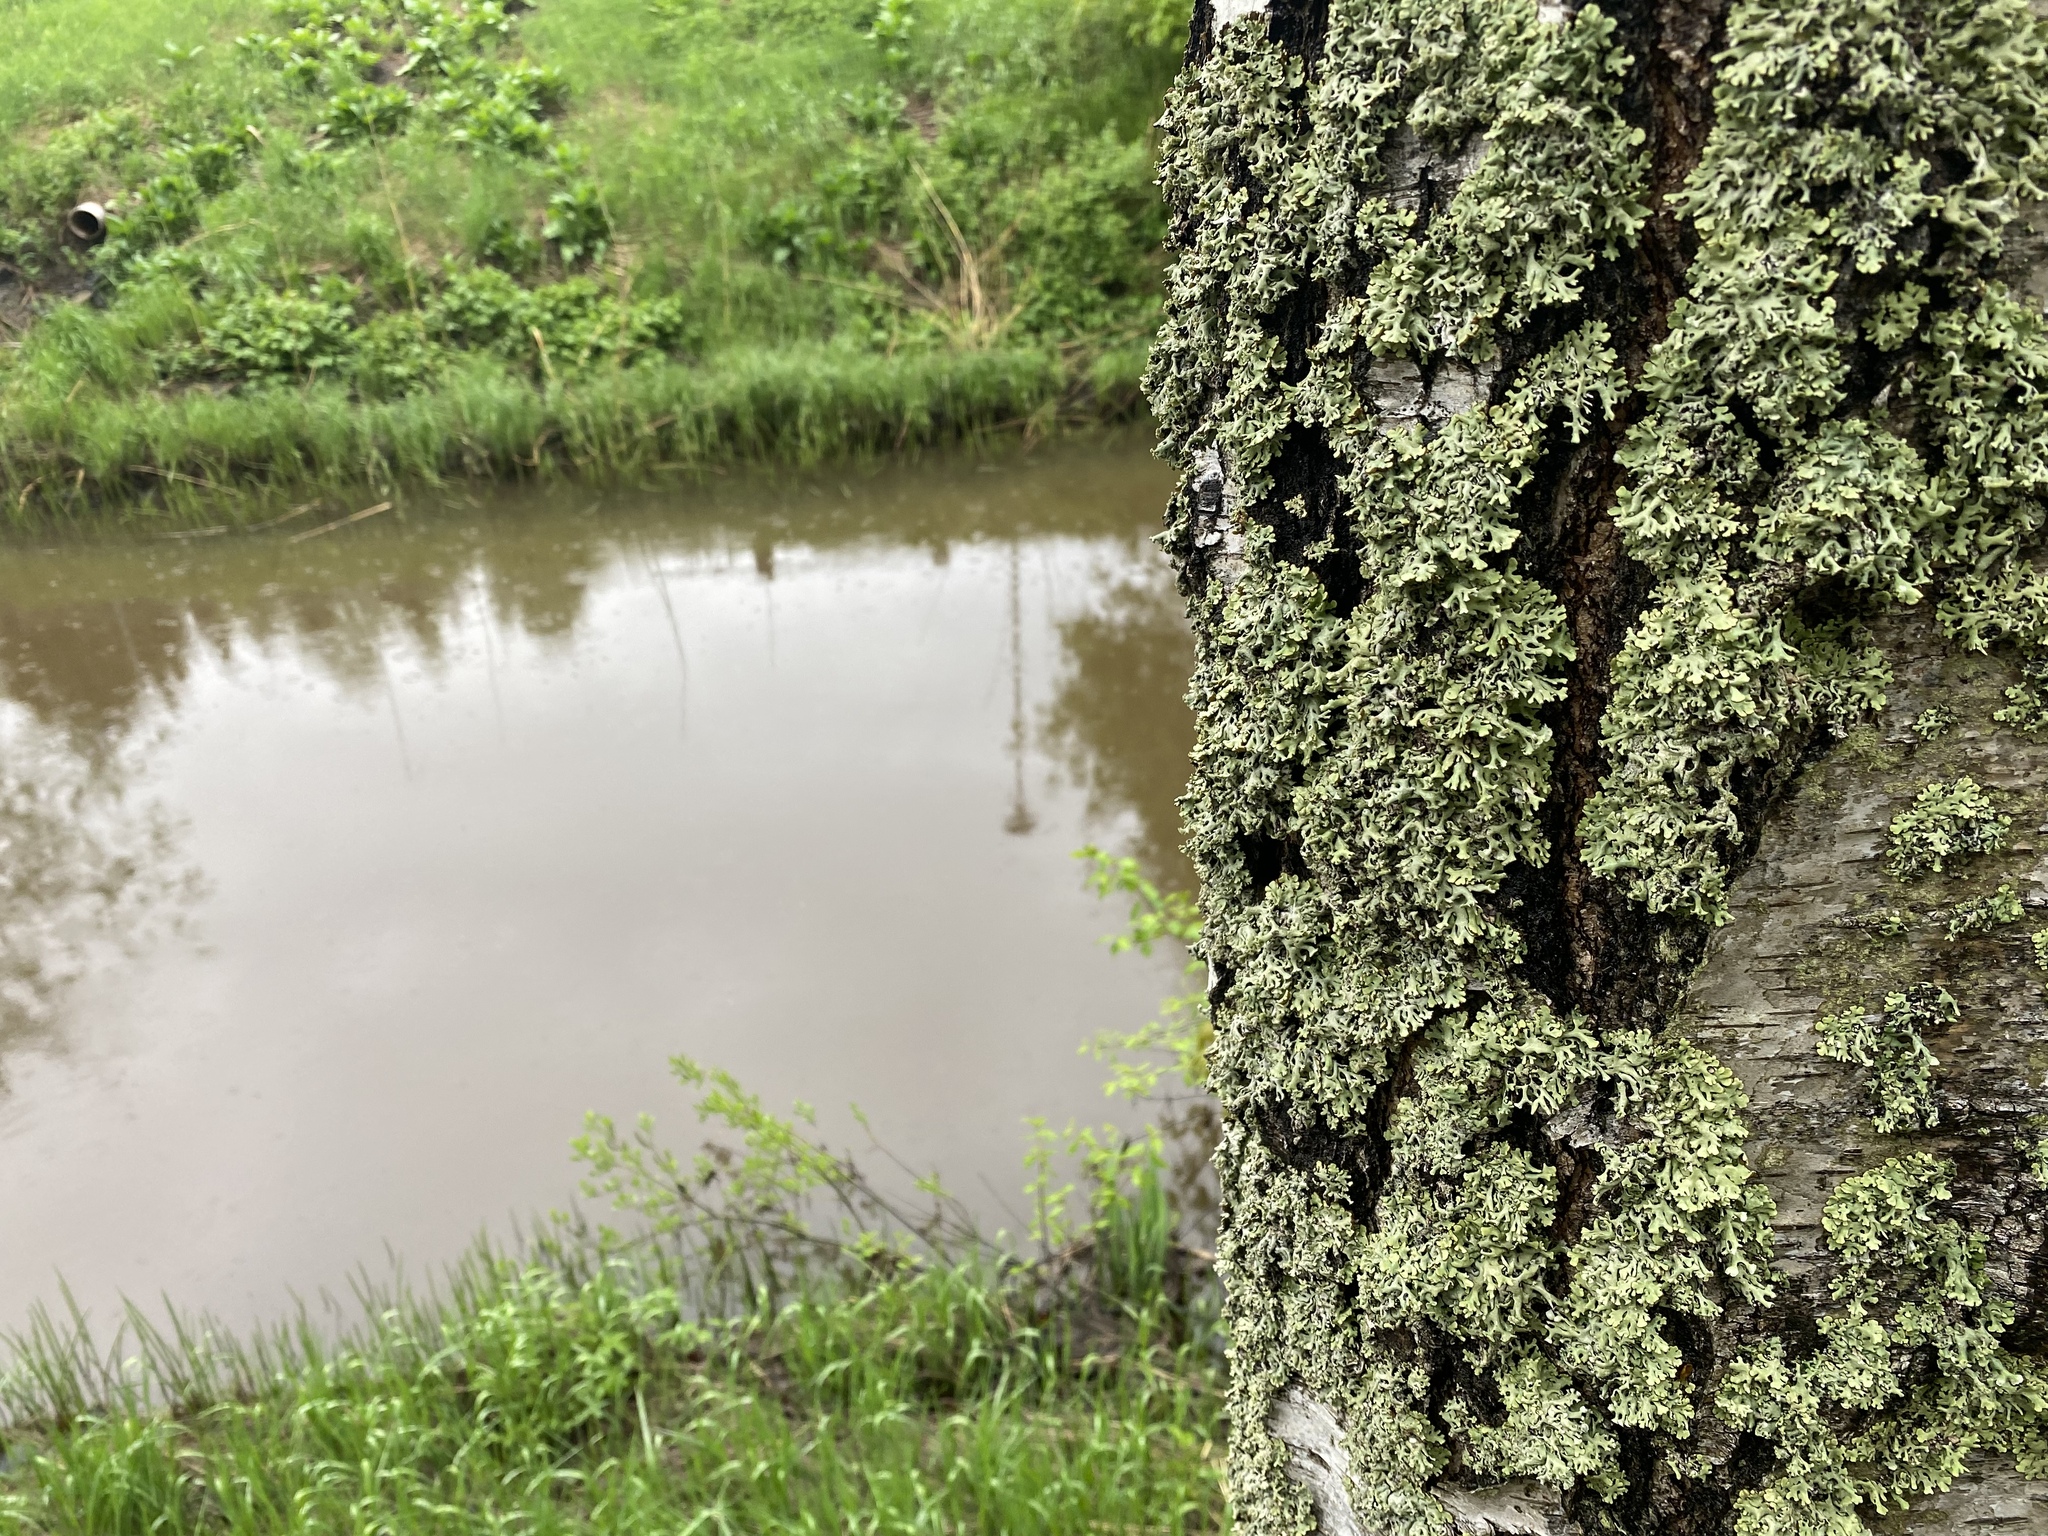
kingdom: Fungi
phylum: Ascomycota
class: Lecanoromycetes
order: Lecanorales
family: Parmeliaceae
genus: Hypogymnia
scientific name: Hypogymnia physodes
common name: Dark crottle
